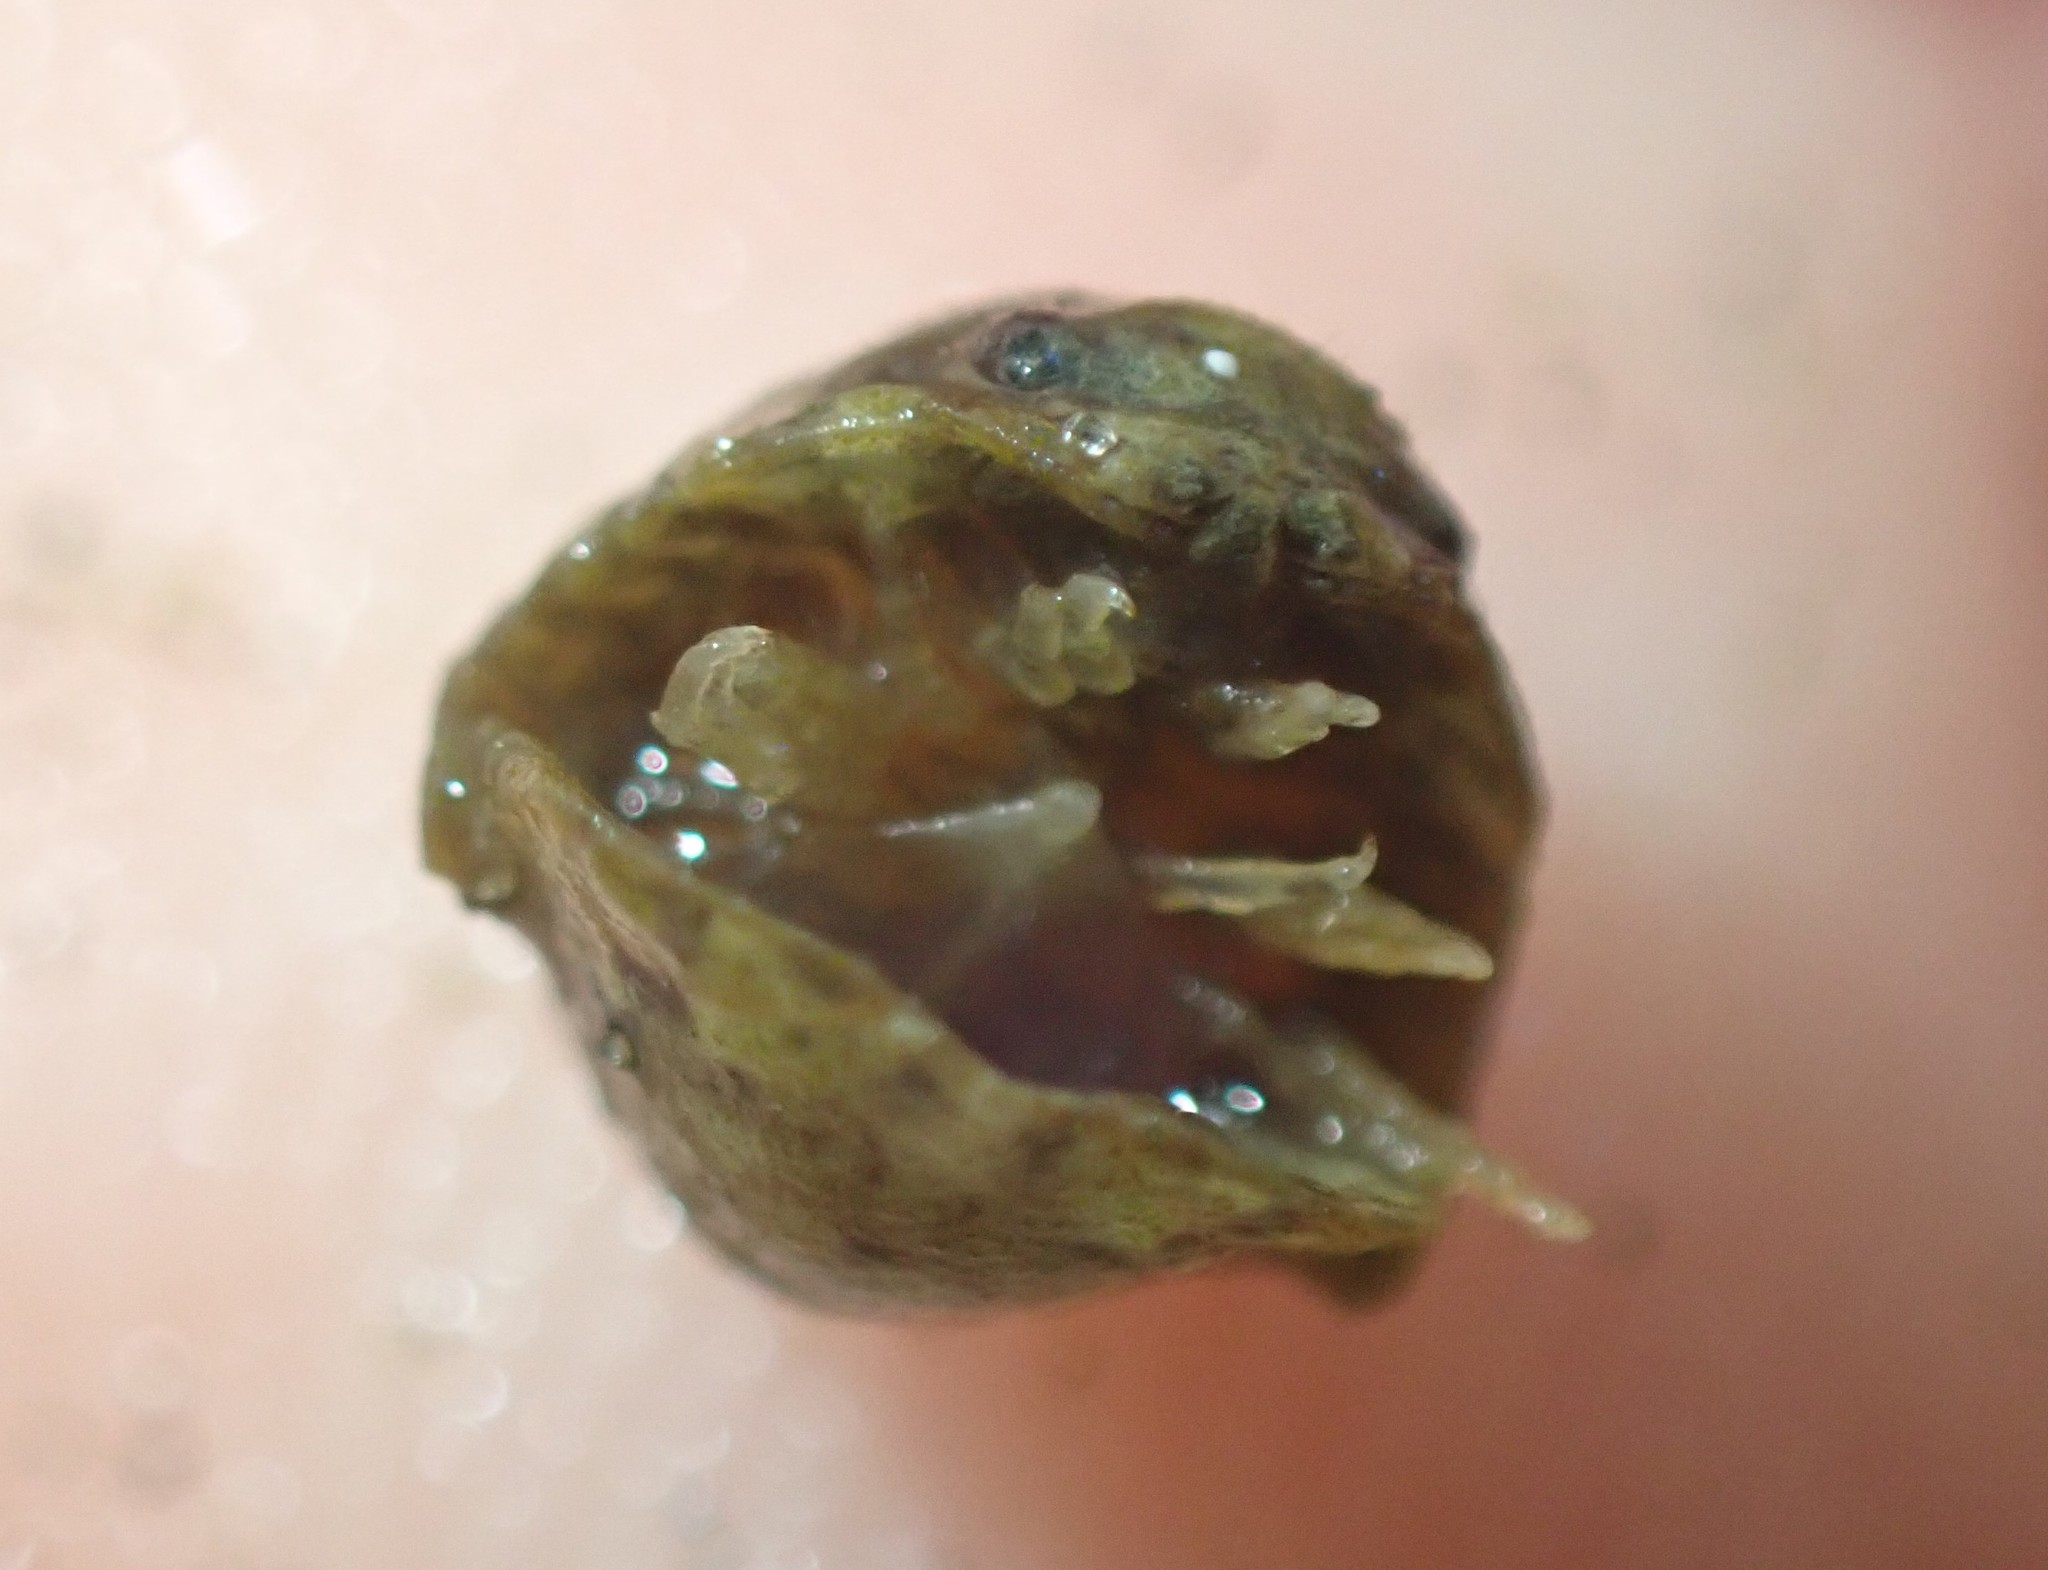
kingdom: Animalia
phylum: Arthropoda
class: Malacostraca
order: Isopoda
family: Sphaeromatidae
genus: Exosphaeroma
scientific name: Exosphaeroma planulum
